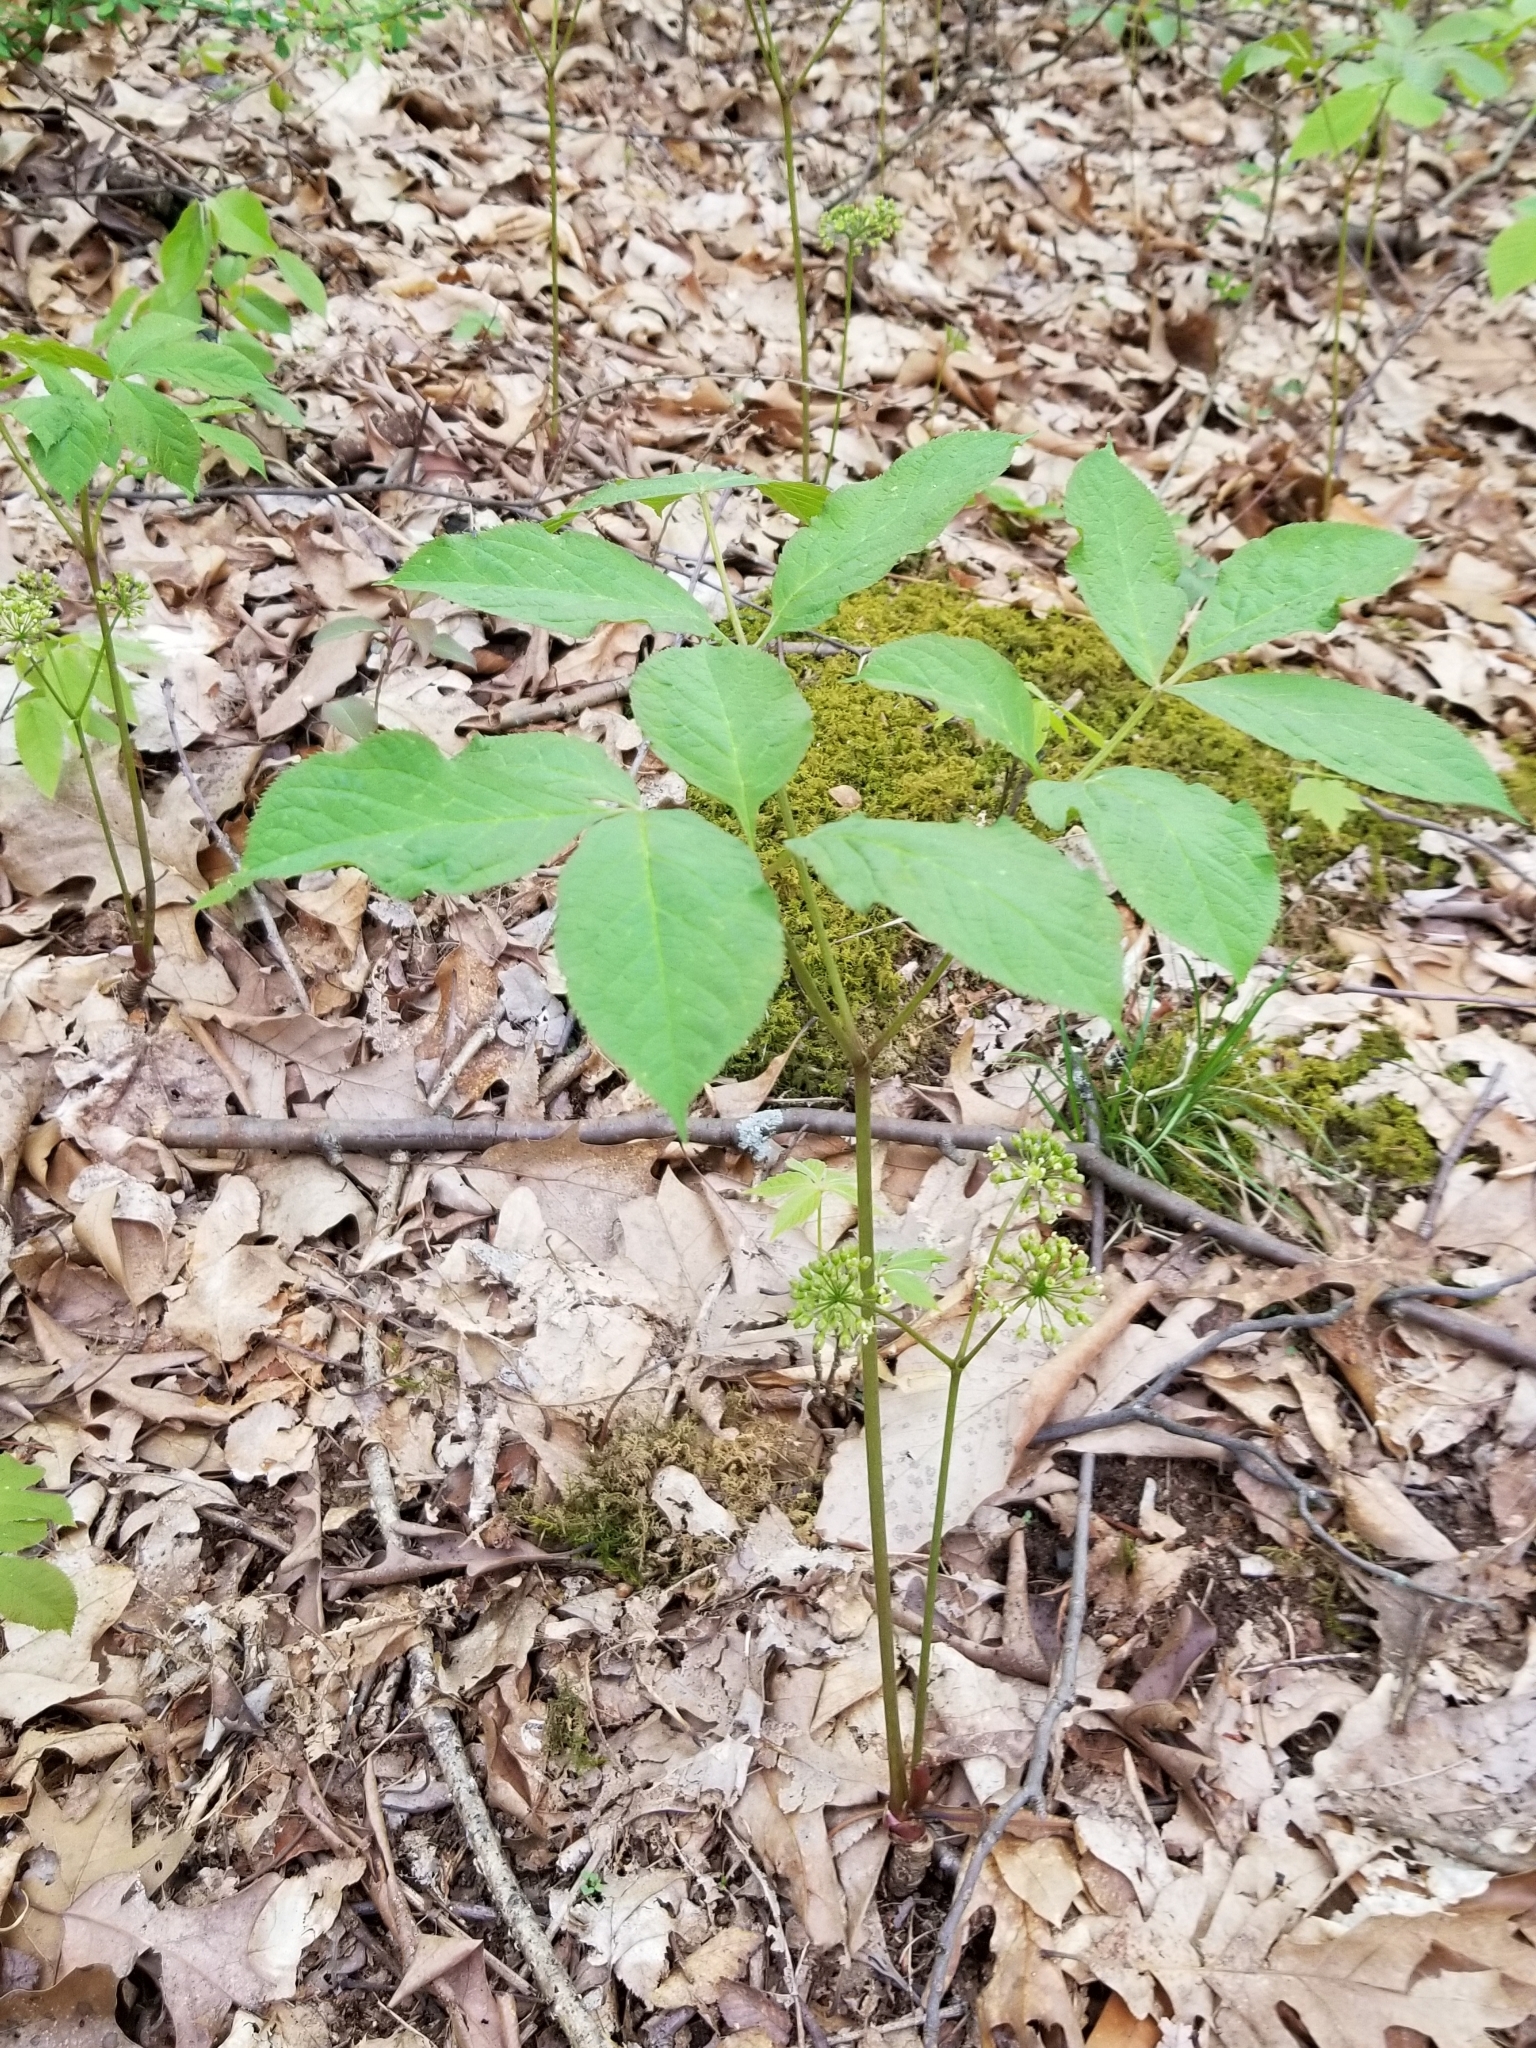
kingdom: Plantae
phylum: Tracheophyta
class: Magnoliopsida
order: Apiales
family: Araliaceae
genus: Aralia
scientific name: Aralia nudicaulis
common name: Wild sarsaparilla
